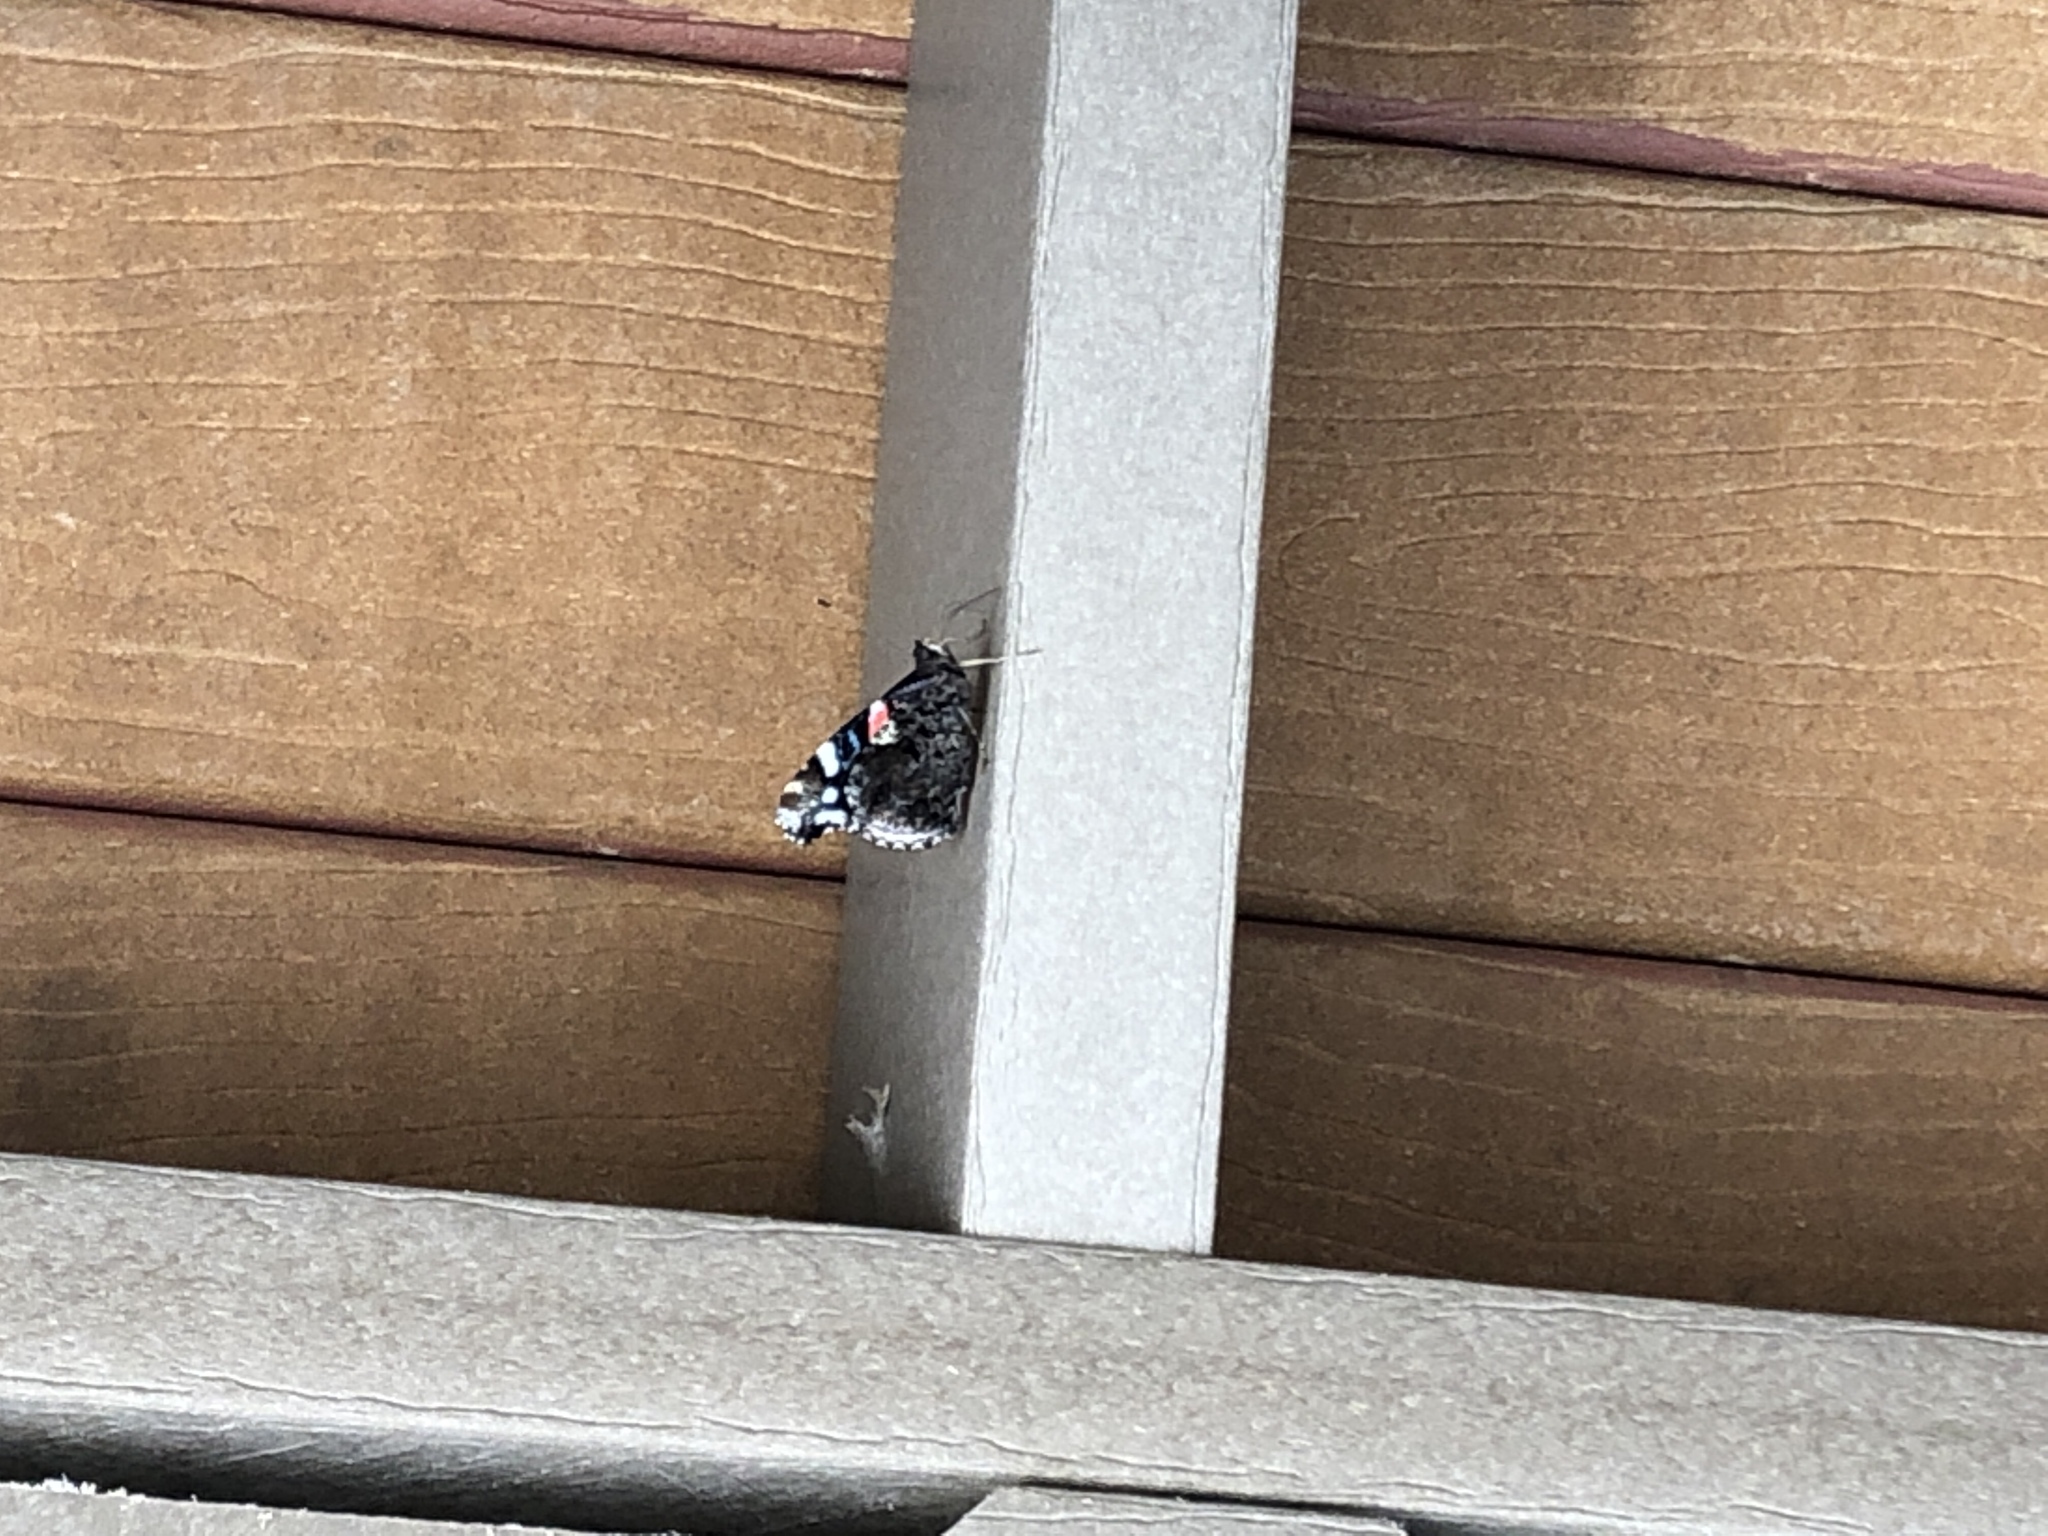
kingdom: Animalia
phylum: Arthropoda
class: Insecta
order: Lepidoptera
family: Nymphalidae
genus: Vanessa
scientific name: Vanessa atalanta
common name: Red admiral
